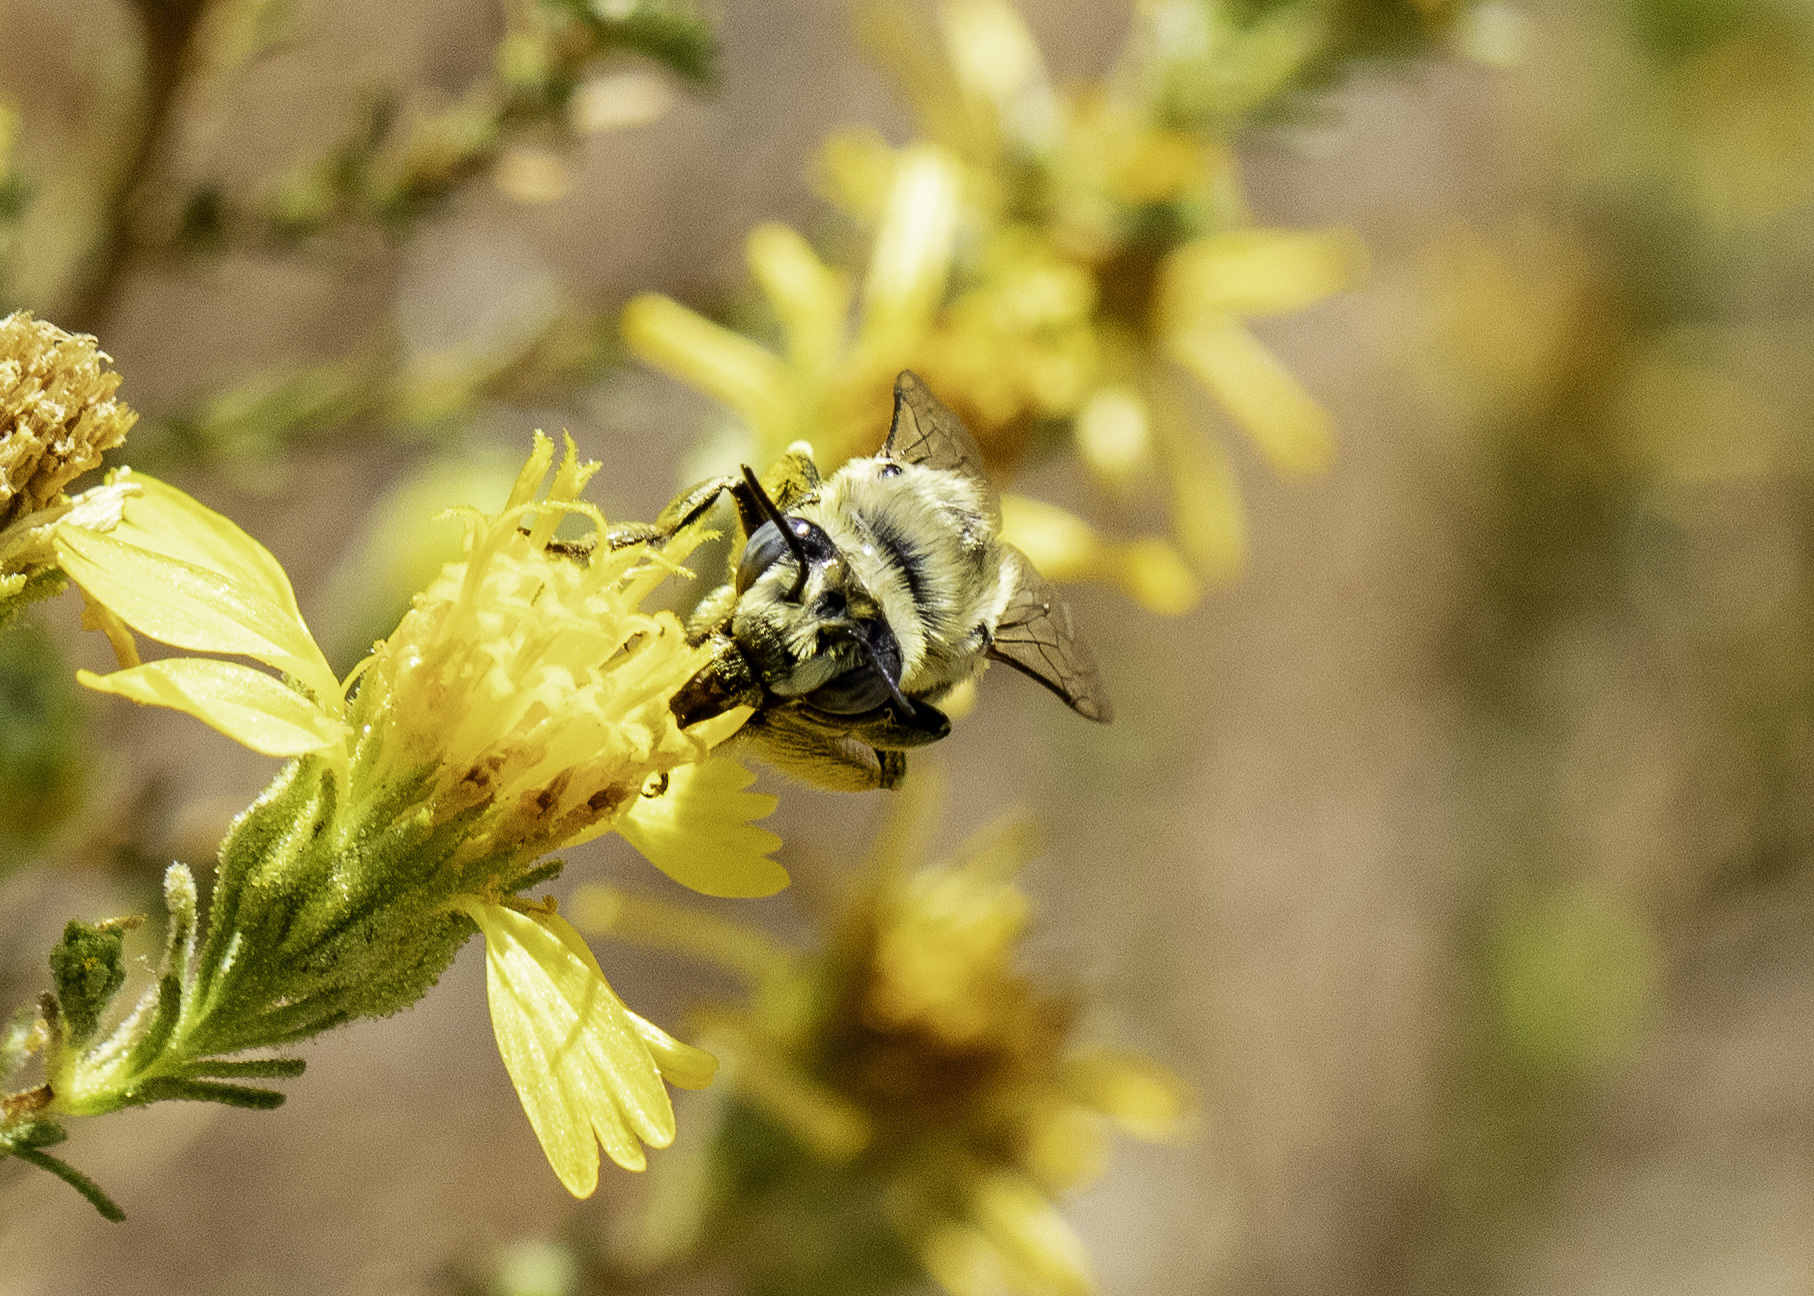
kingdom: Animalia
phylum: Arthropoda
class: Insecta
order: Hymenoptera
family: Apidae
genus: Anthophora
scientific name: Anthophora urbana
